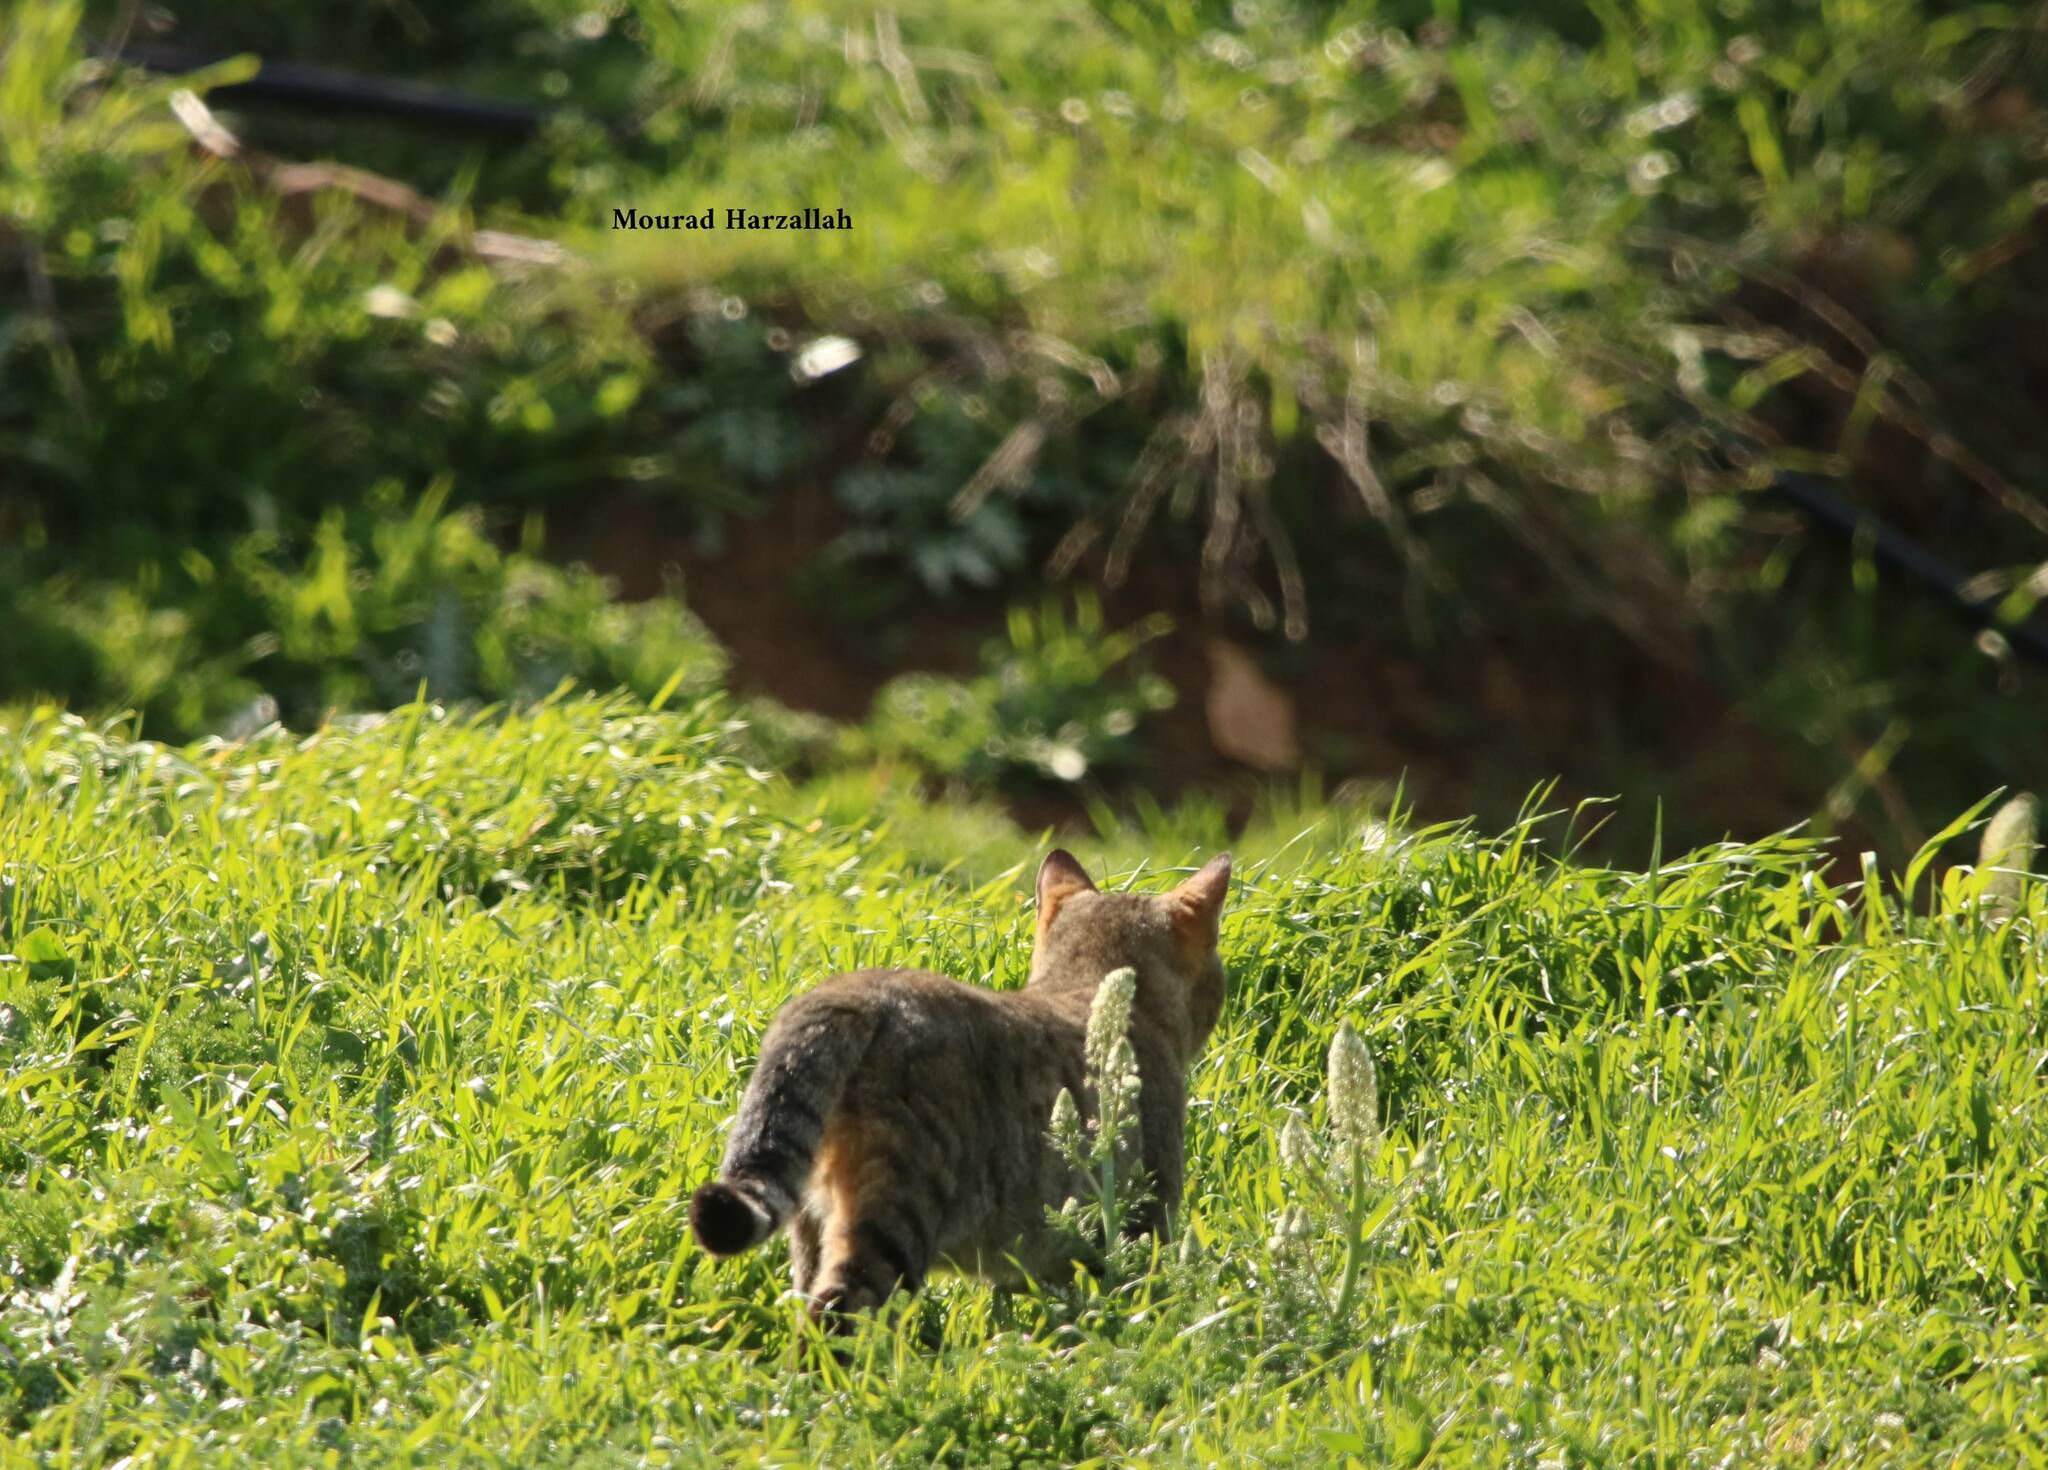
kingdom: Animalia
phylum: Chordata
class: Mammalia
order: Carnivora
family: Felidae
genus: Felis
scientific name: Felis silvestris
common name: Wildcat
